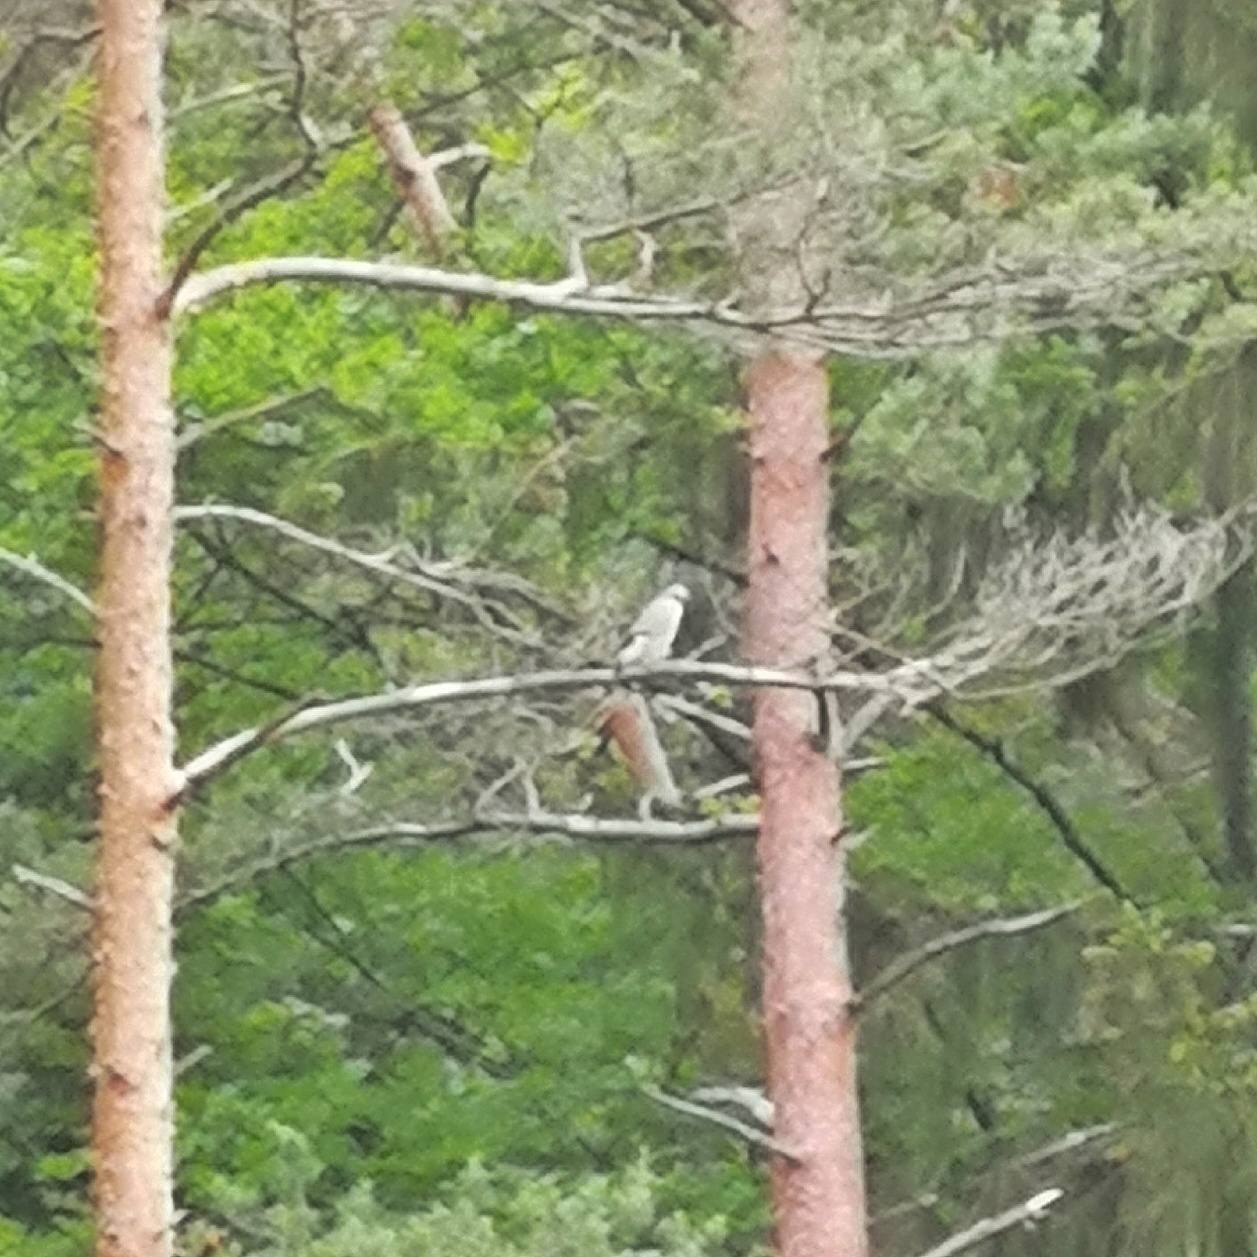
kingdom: Animalia
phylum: Chordata
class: Aves
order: Passeriformes
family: Laniidae
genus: Lanius
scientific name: Lanius excubitor
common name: Great grey shrike
